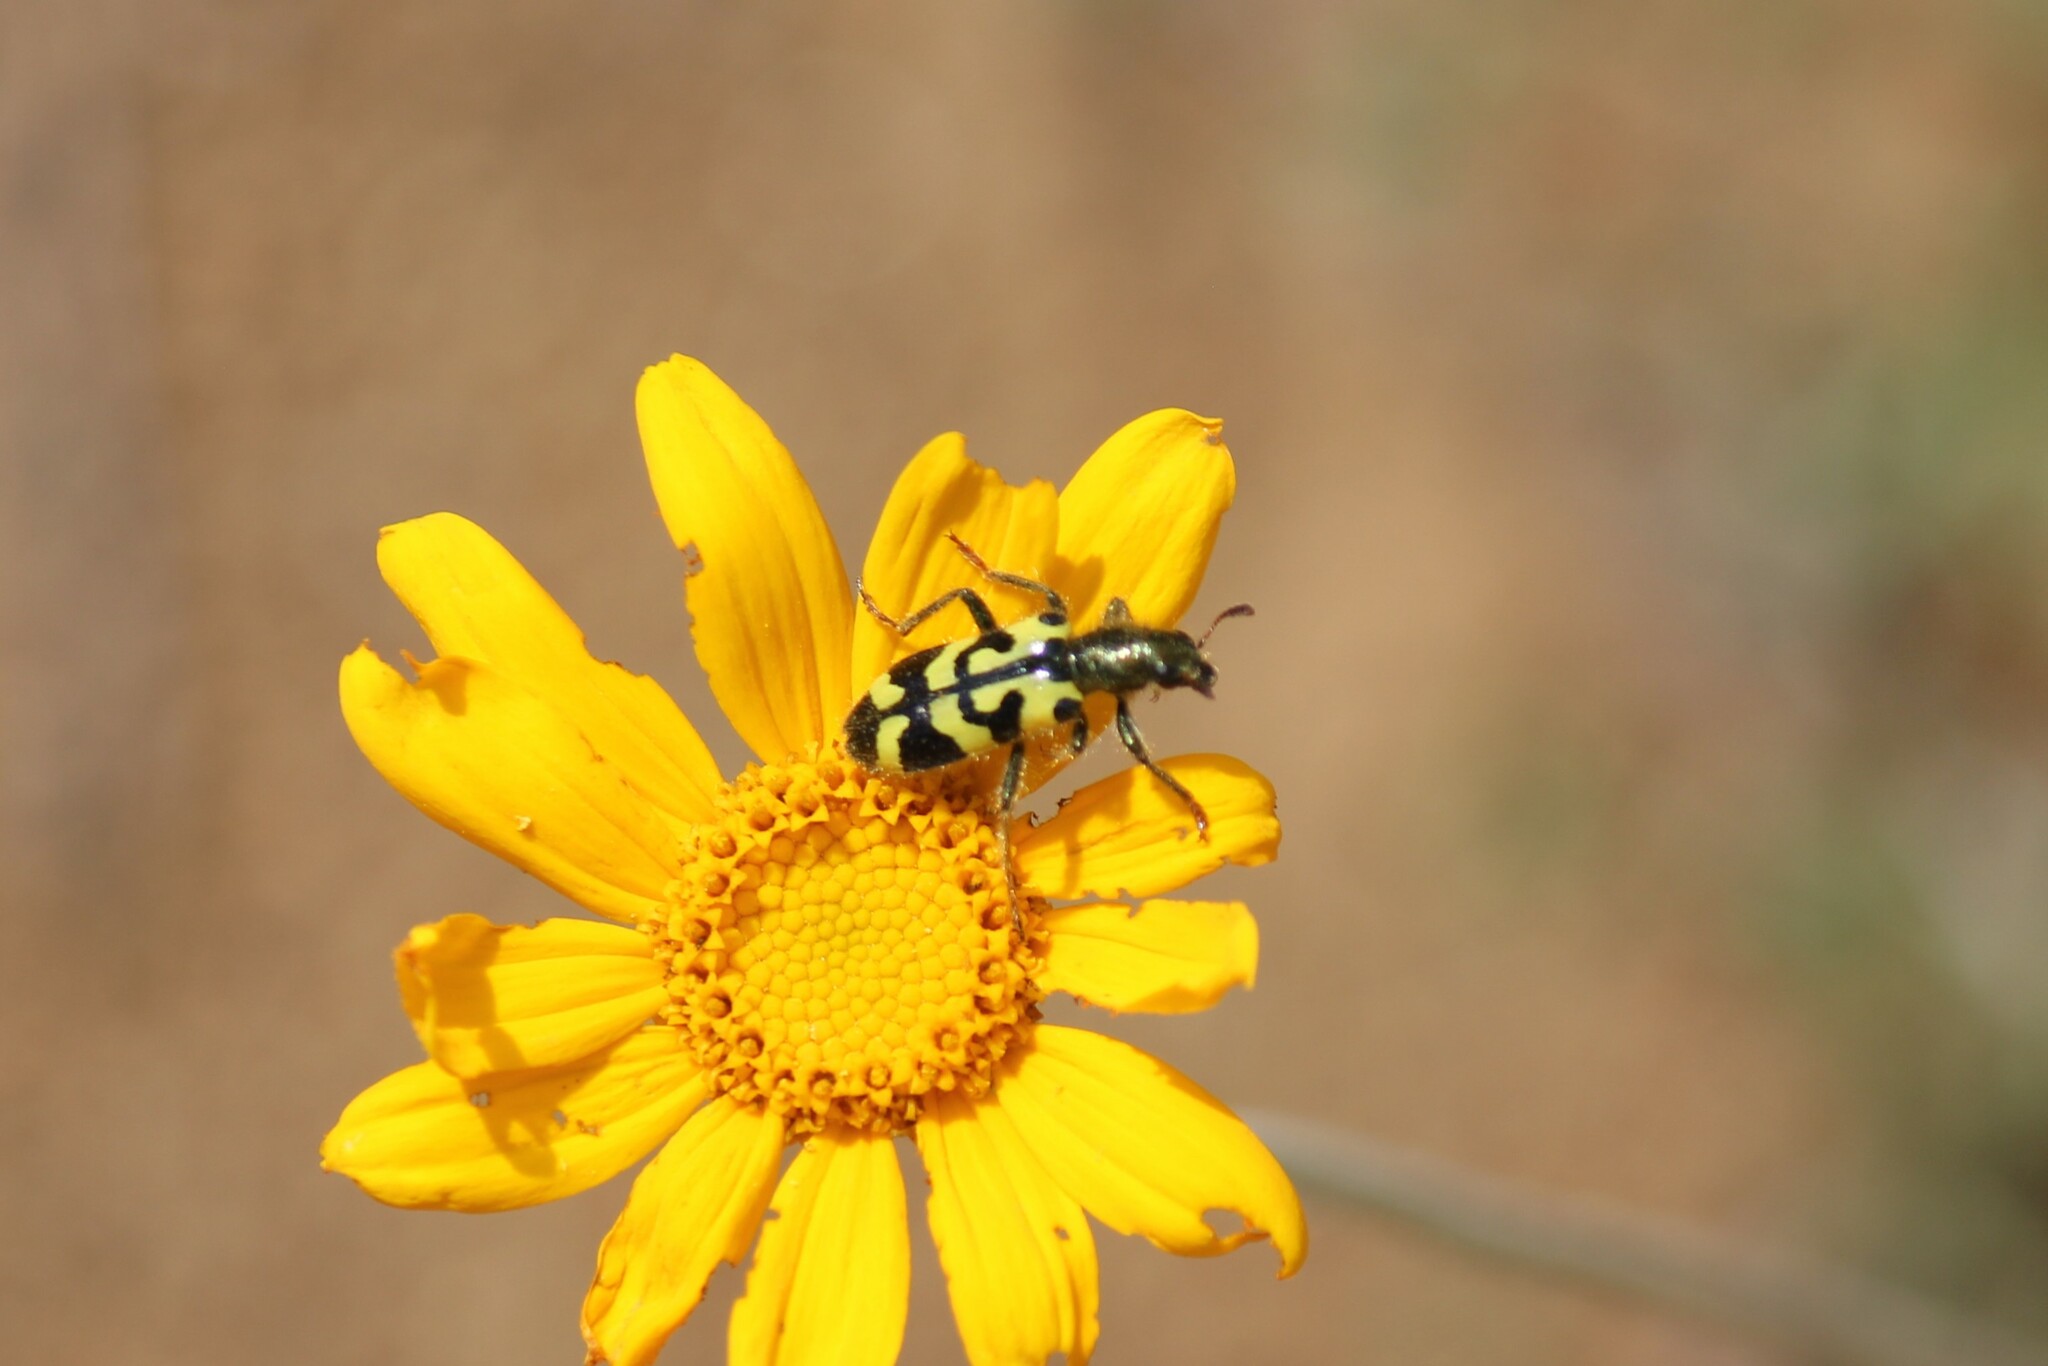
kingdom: Animalia
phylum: Arthropoda
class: Insecta
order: Coleoptera
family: Cleridae
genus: Trichodes
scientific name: Trichodes ornatus
